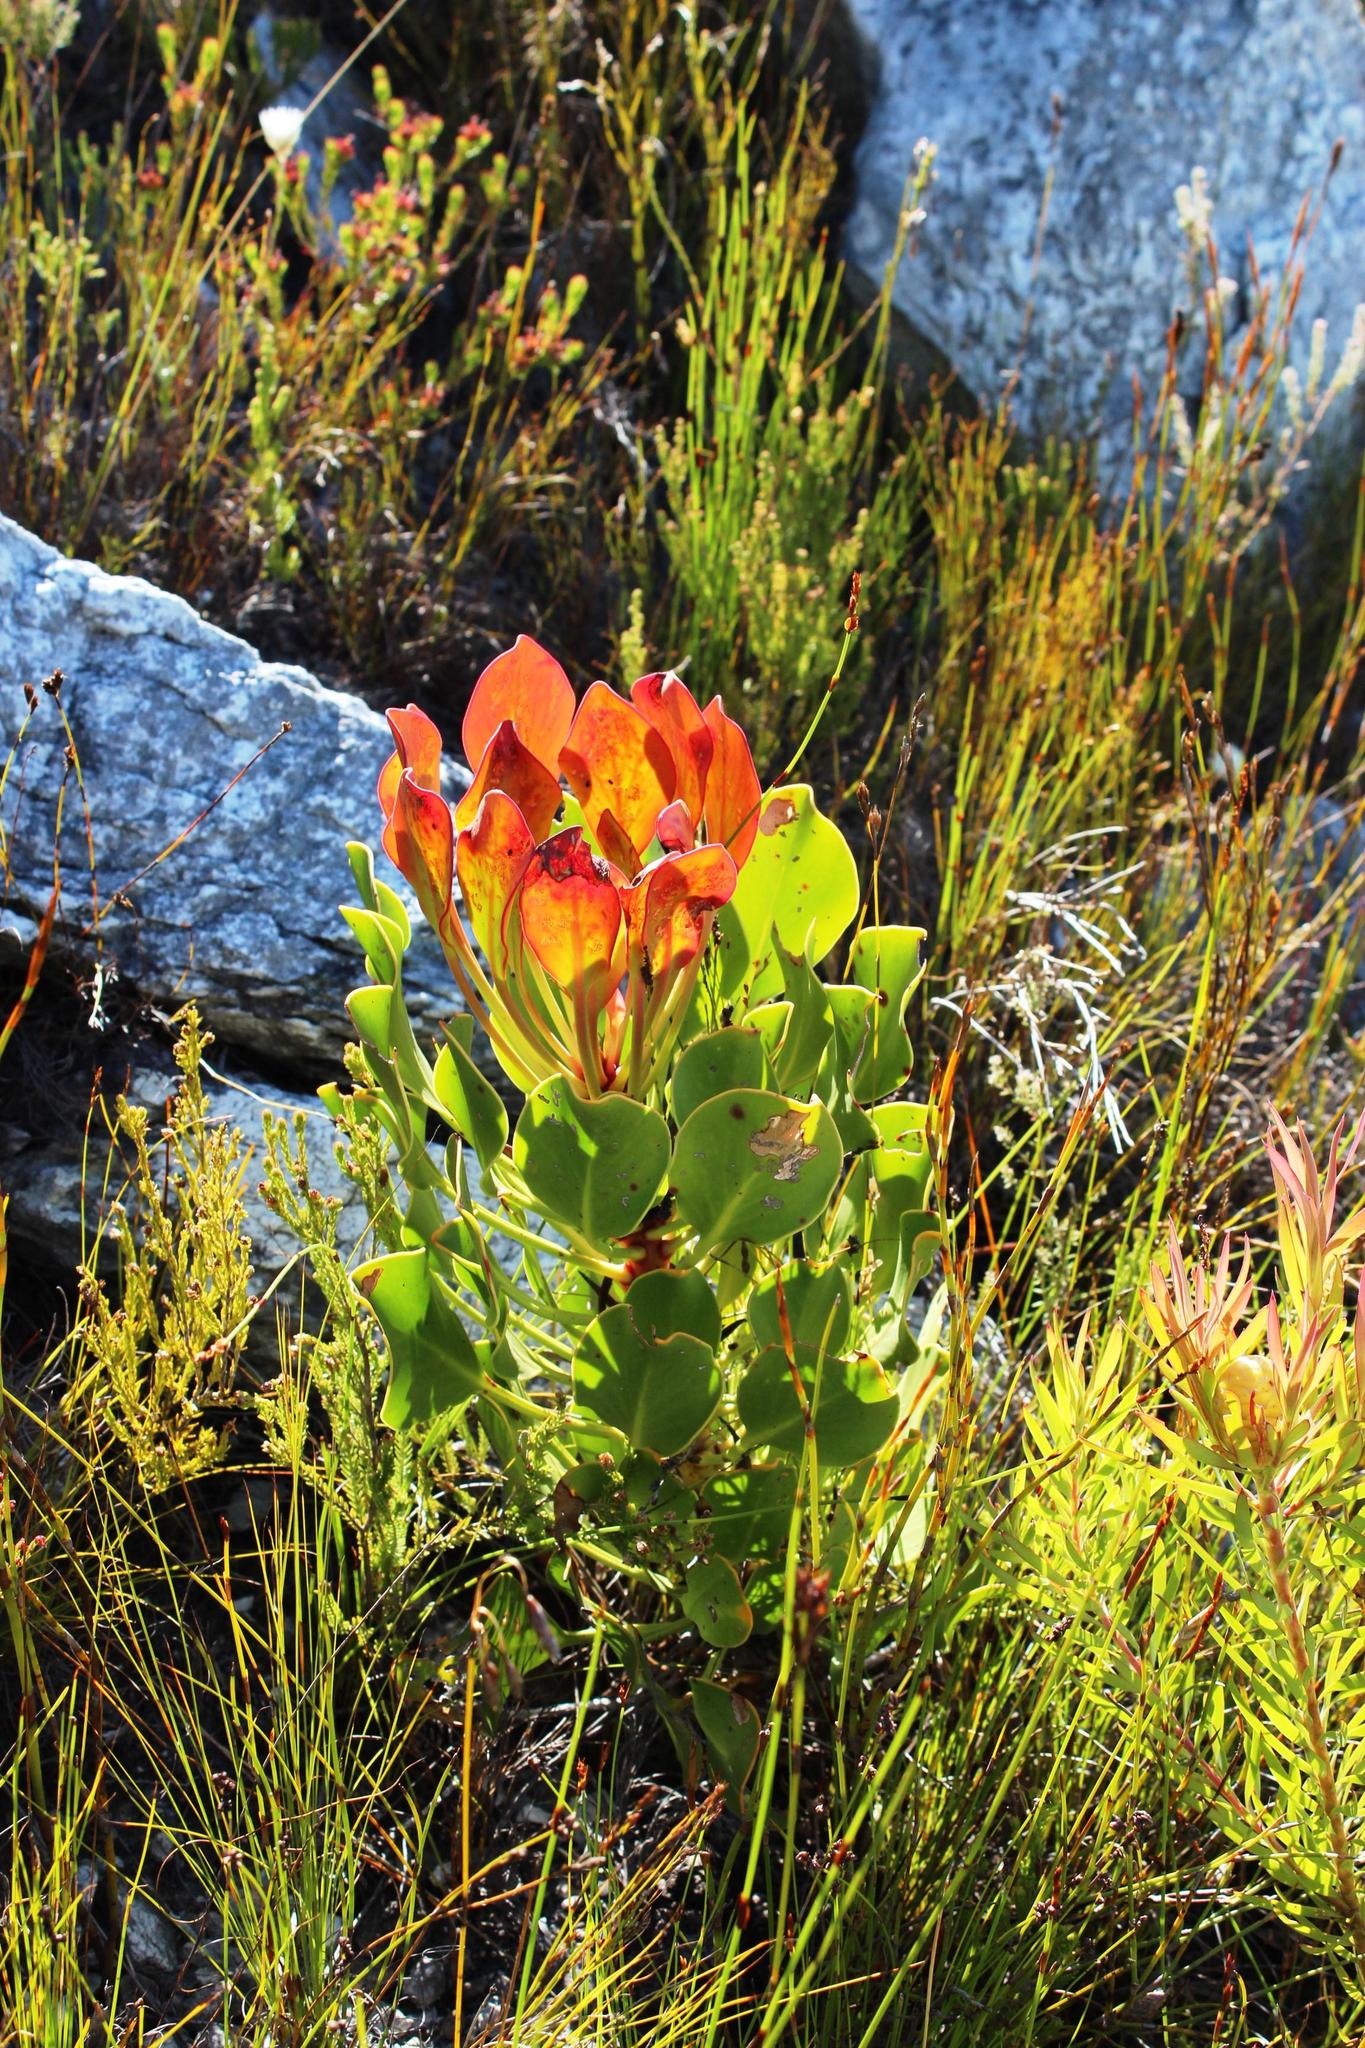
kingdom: Plantae
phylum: Tracheophyta
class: Magnoliopsida
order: Proteales
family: Proteaceae
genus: Protea
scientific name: Protea cynaroides
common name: King protea
